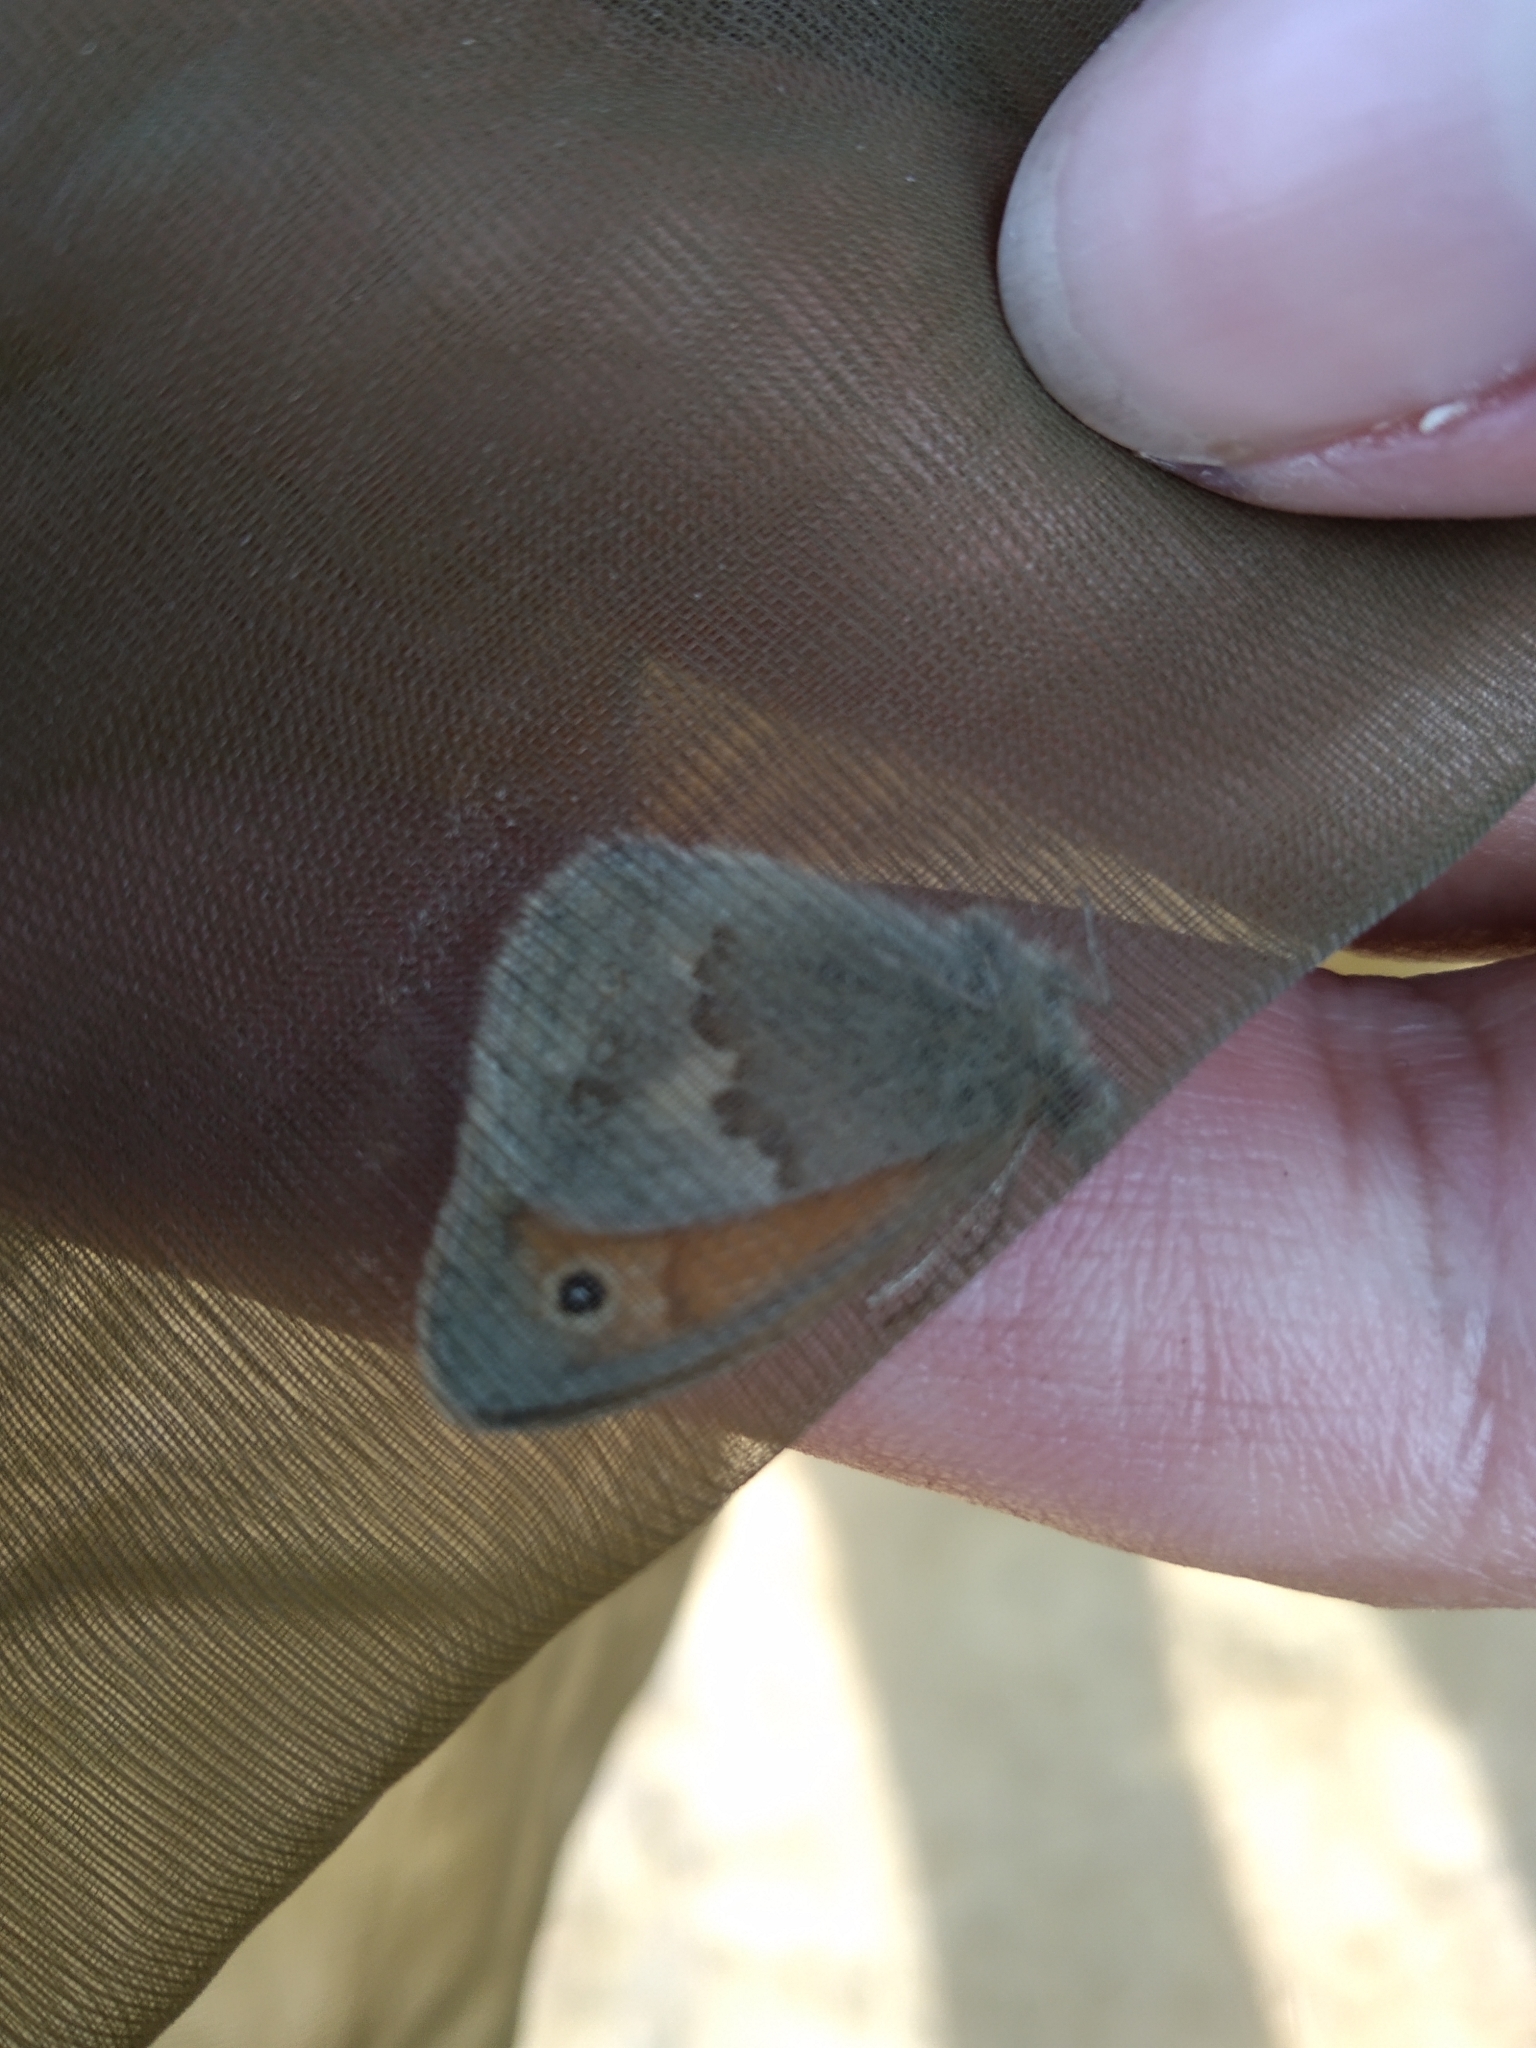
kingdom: Animalia
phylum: Arthropoda
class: Insecta
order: Lepidoptera
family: Nymphalidae
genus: Coenonympha
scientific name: Coenonympha pamphilus
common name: Small heath
